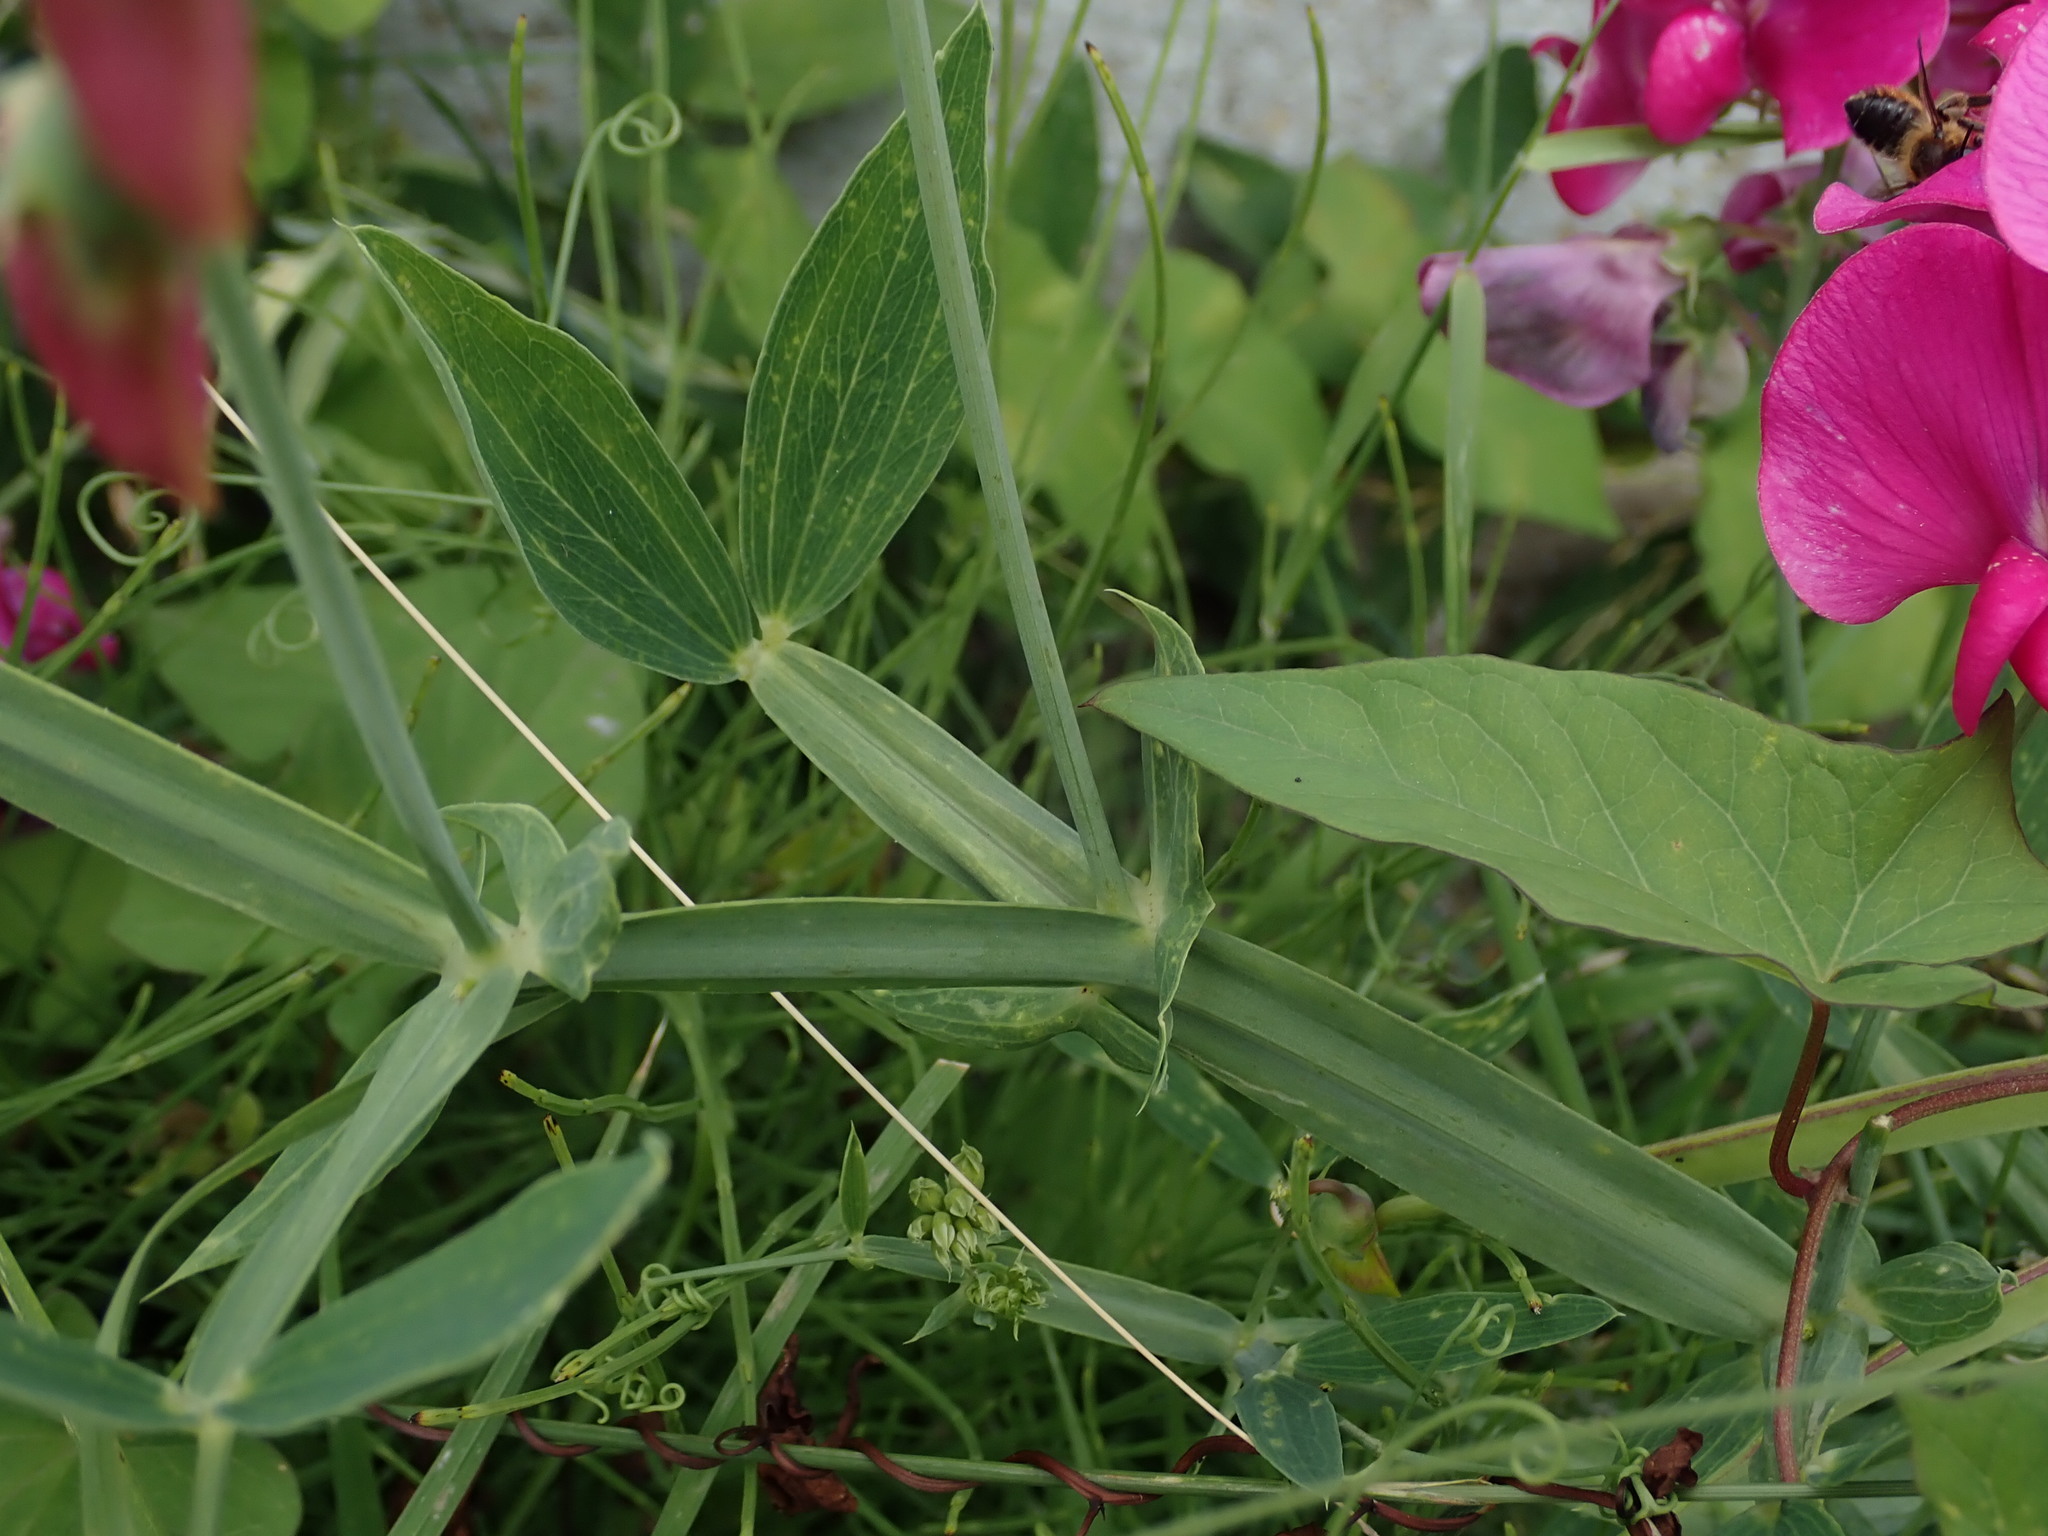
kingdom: Plantae
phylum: Tracheophyta
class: Magnoliopsida
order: Fabales
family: Fabaceae
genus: Lathyrus
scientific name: Lathyrus latifolius
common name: Perennial pea
